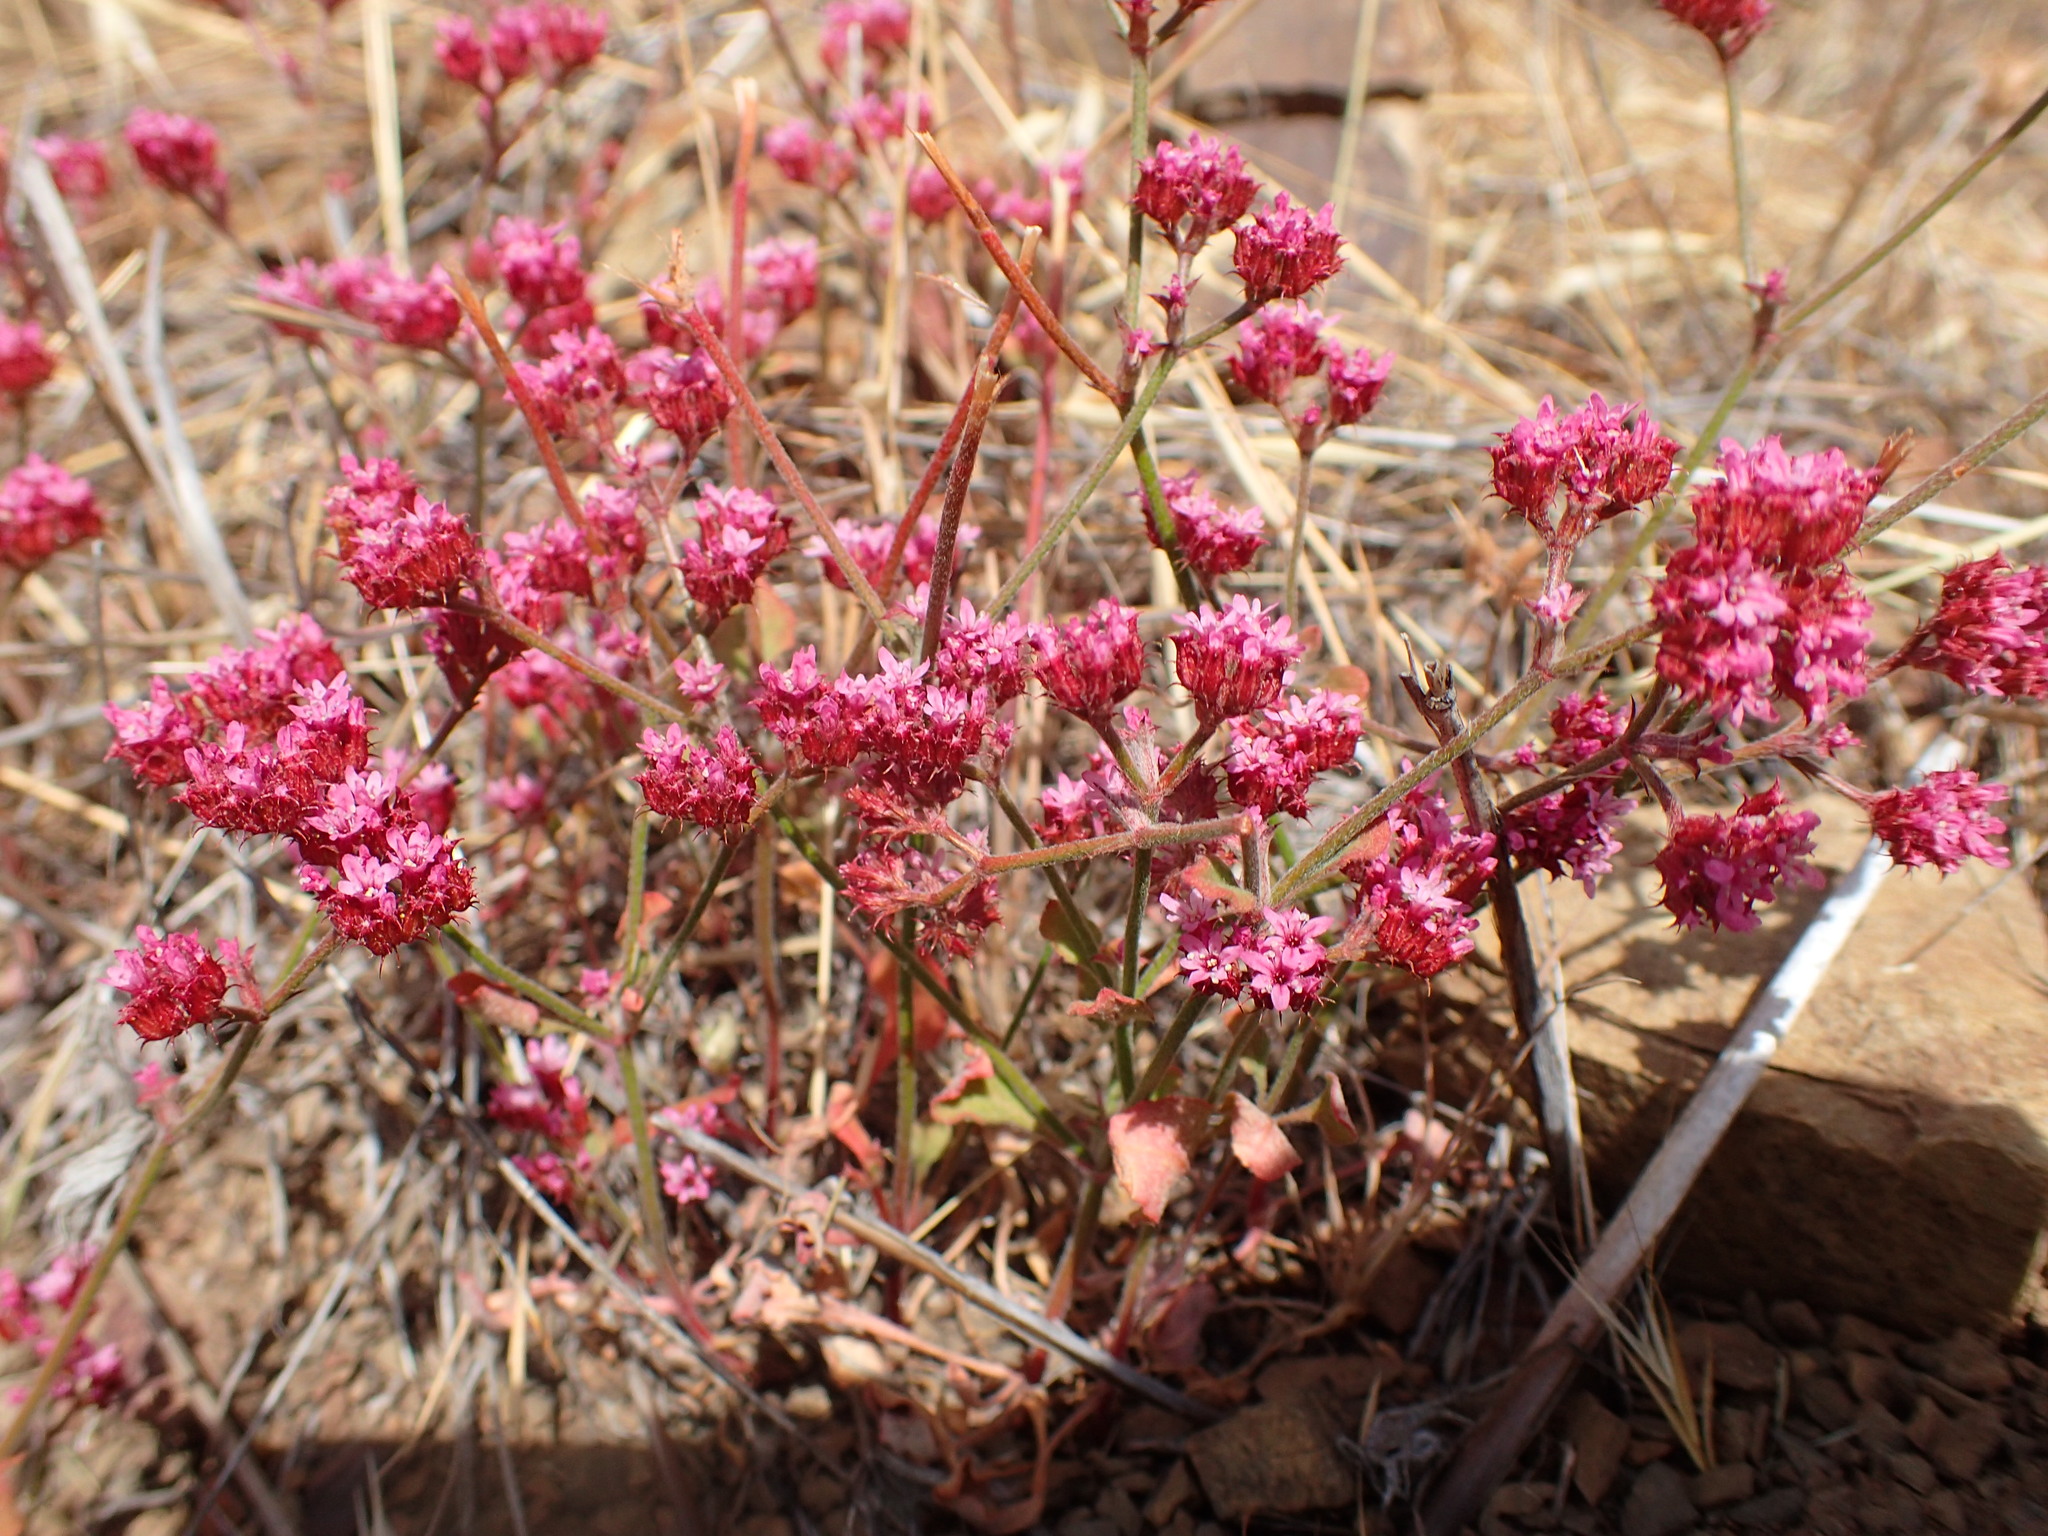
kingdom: Plantae
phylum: Tracheophyta
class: Magnoliopsida
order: Caryophyllales
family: Polygonaceae
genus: Chorizanthe
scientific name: Chorizanthe staticoides
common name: Turkish rugging
